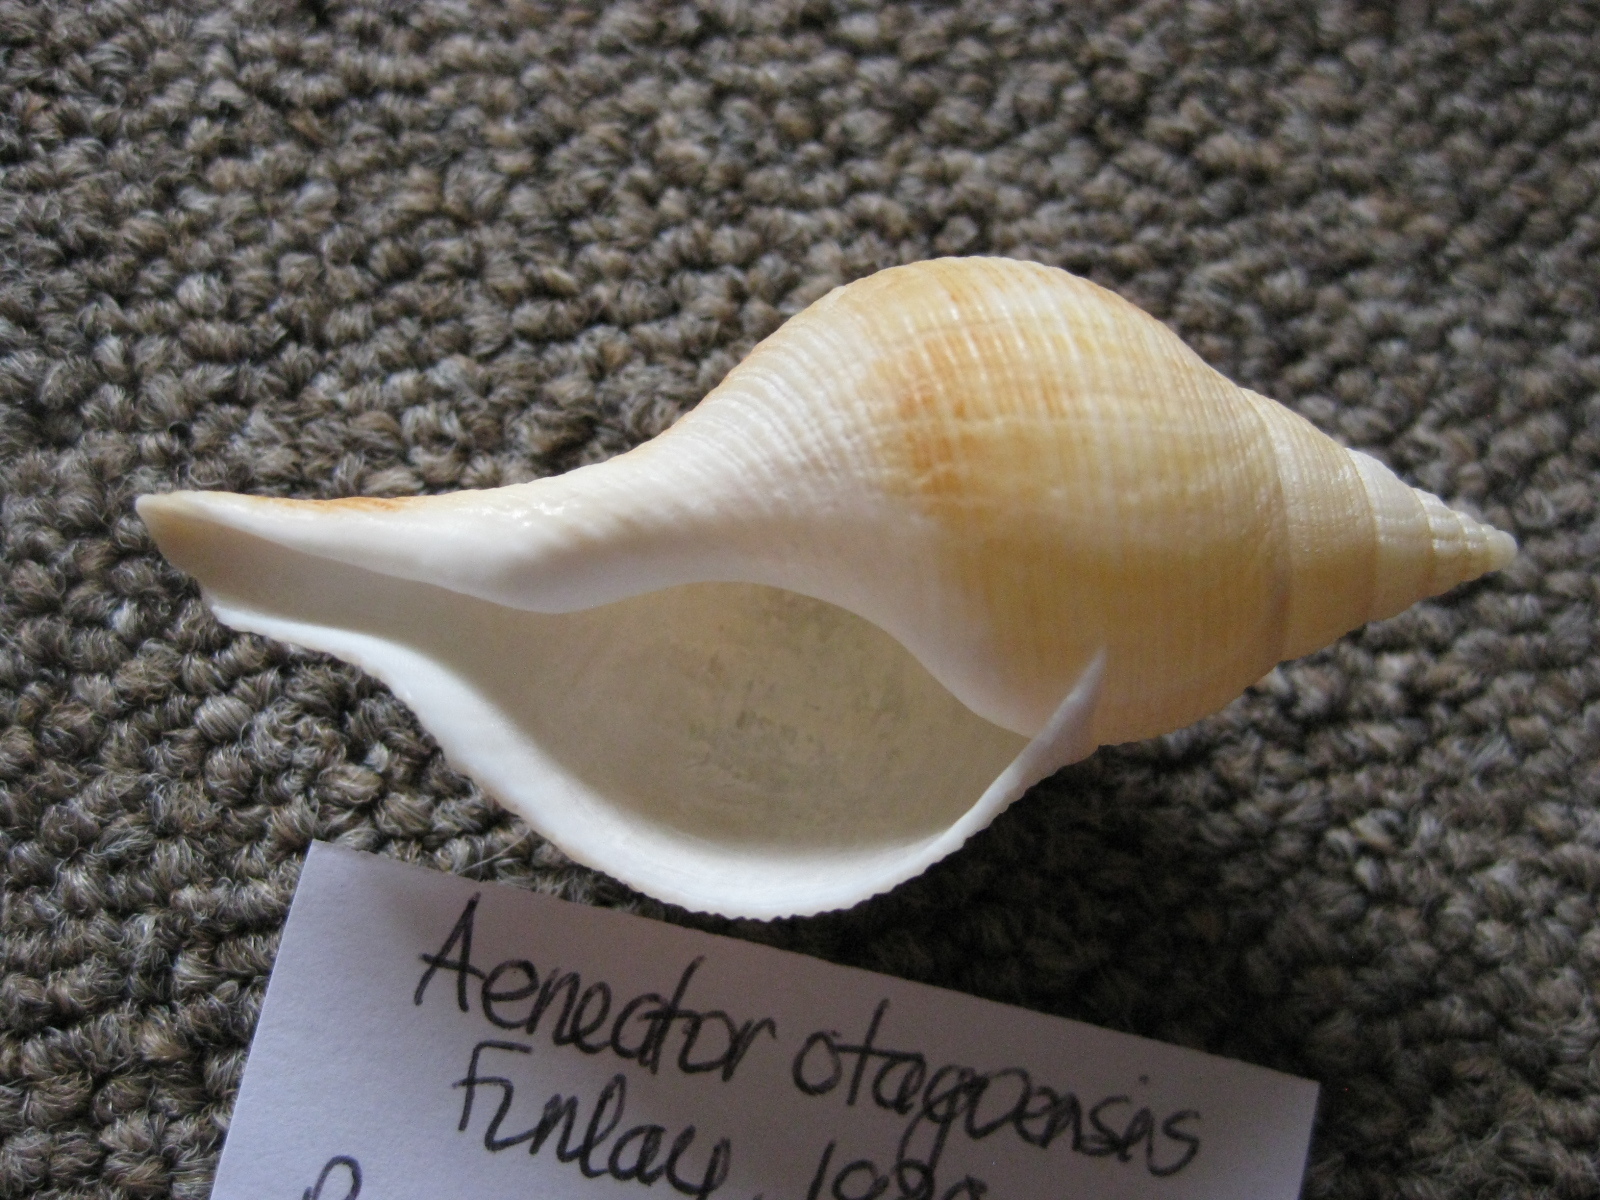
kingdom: Animalia
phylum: Mollusca
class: Gastropoda
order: Neogastropoda
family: Tudiclidae
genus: Aeneator
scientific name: Aeneator otagoensis
